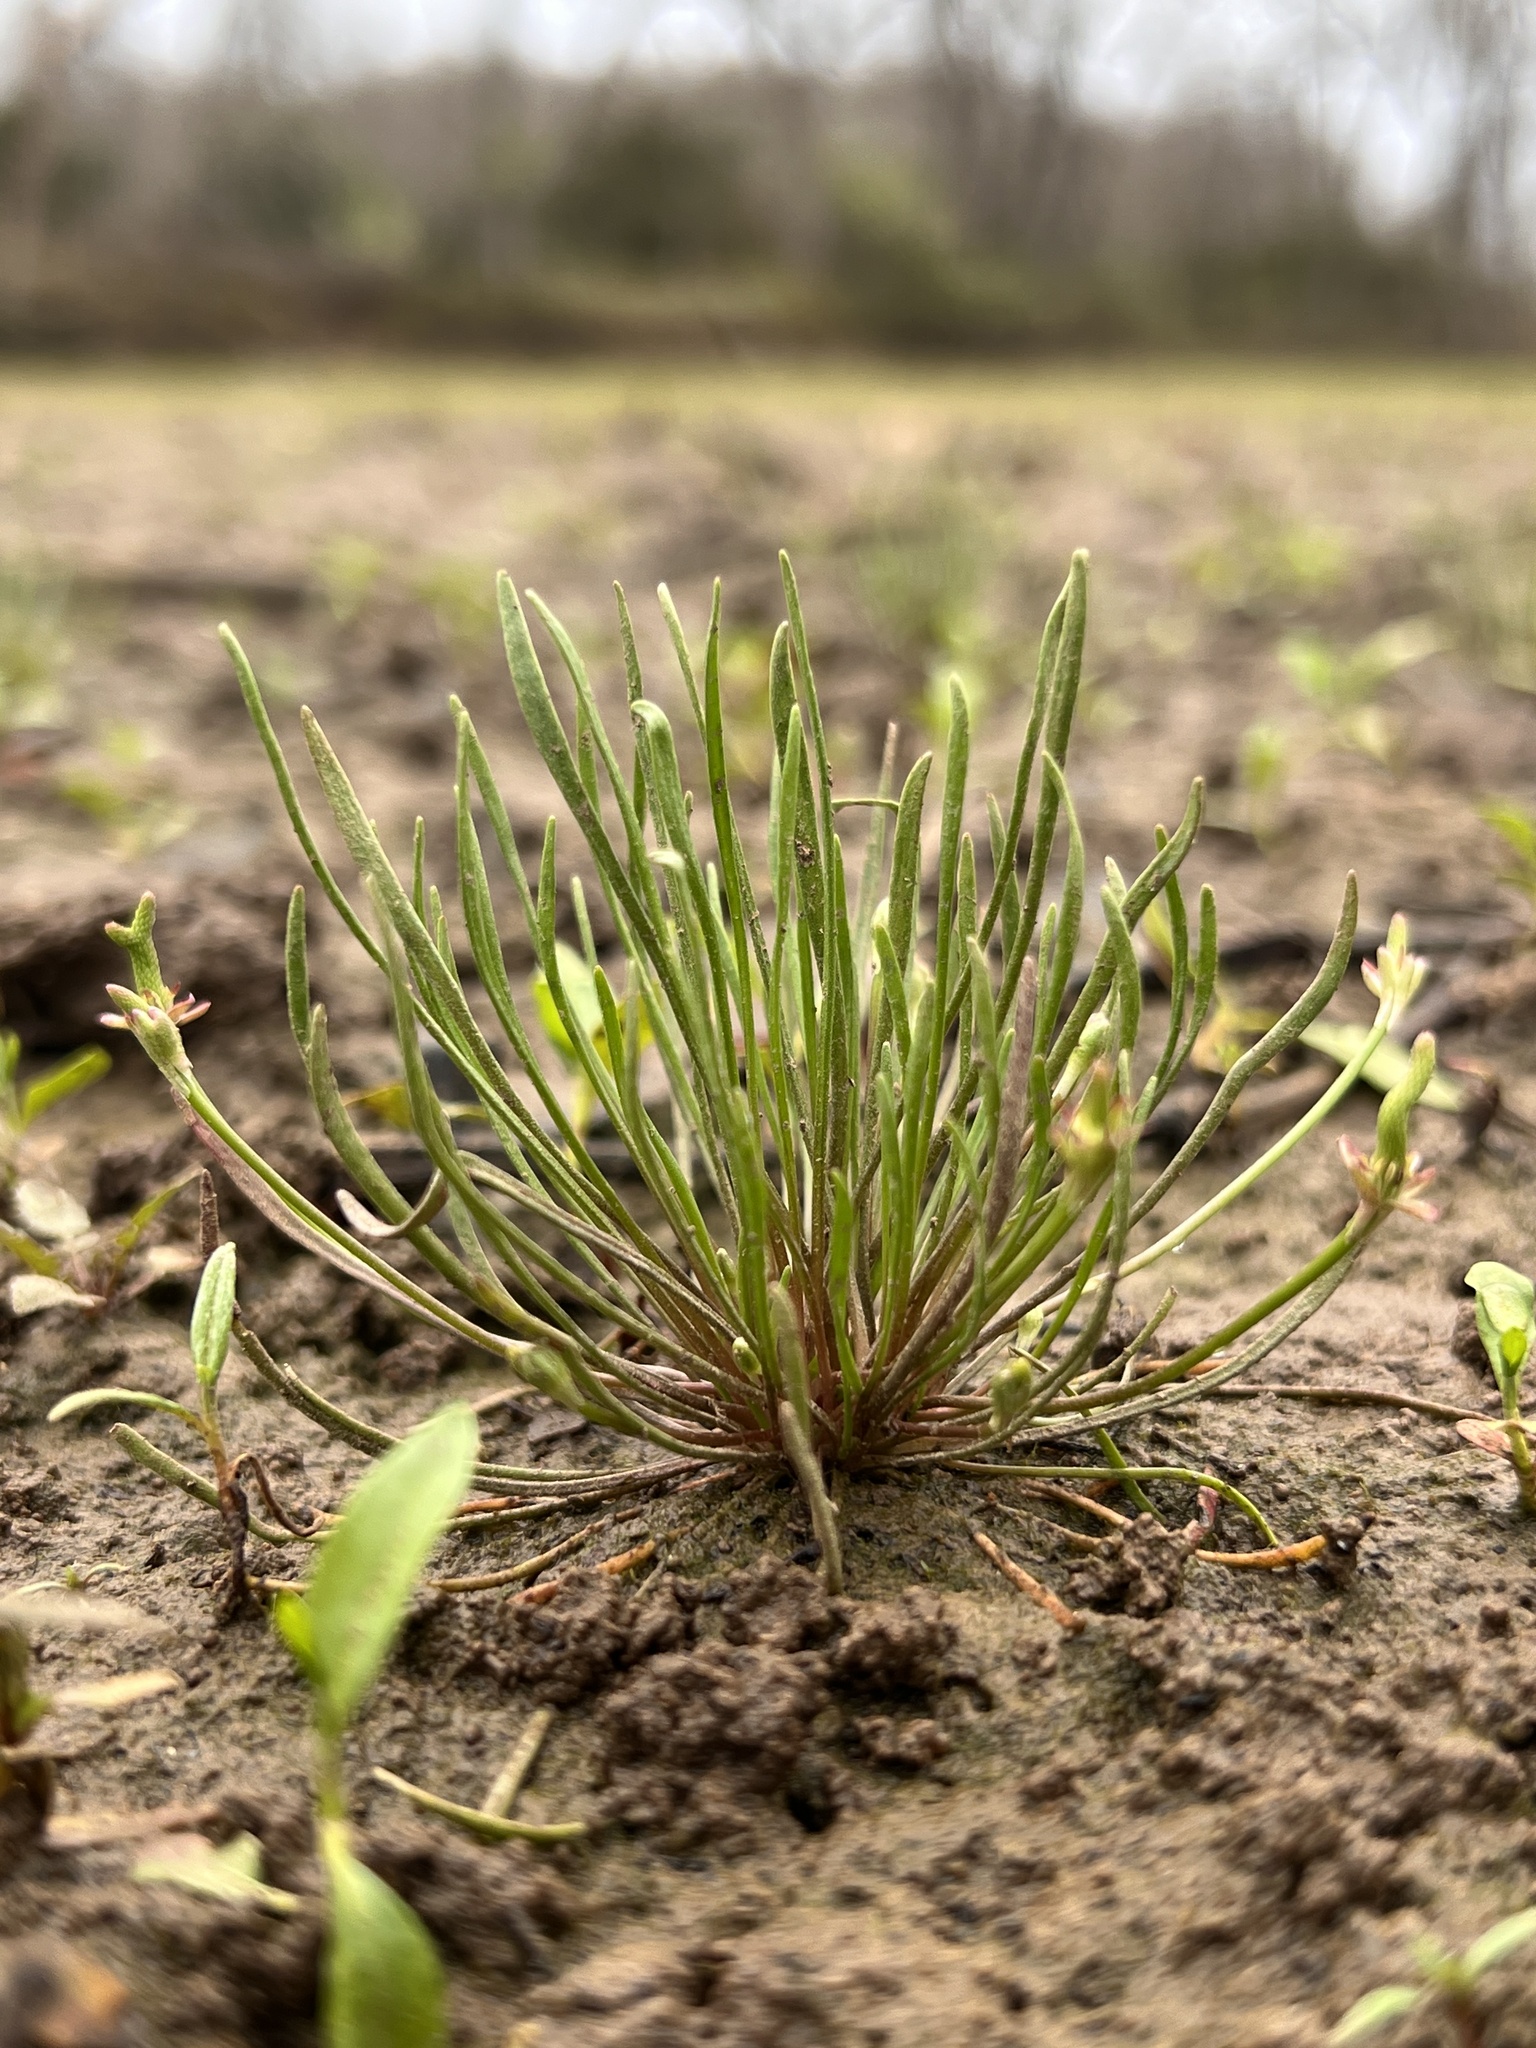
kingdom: Plantae
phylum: Tracheophyta
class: Magnoliopsida
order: Ranunculales
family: Ranunculaceae
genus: Myosurus
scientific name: Myosurus minimus
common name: Mousetail
